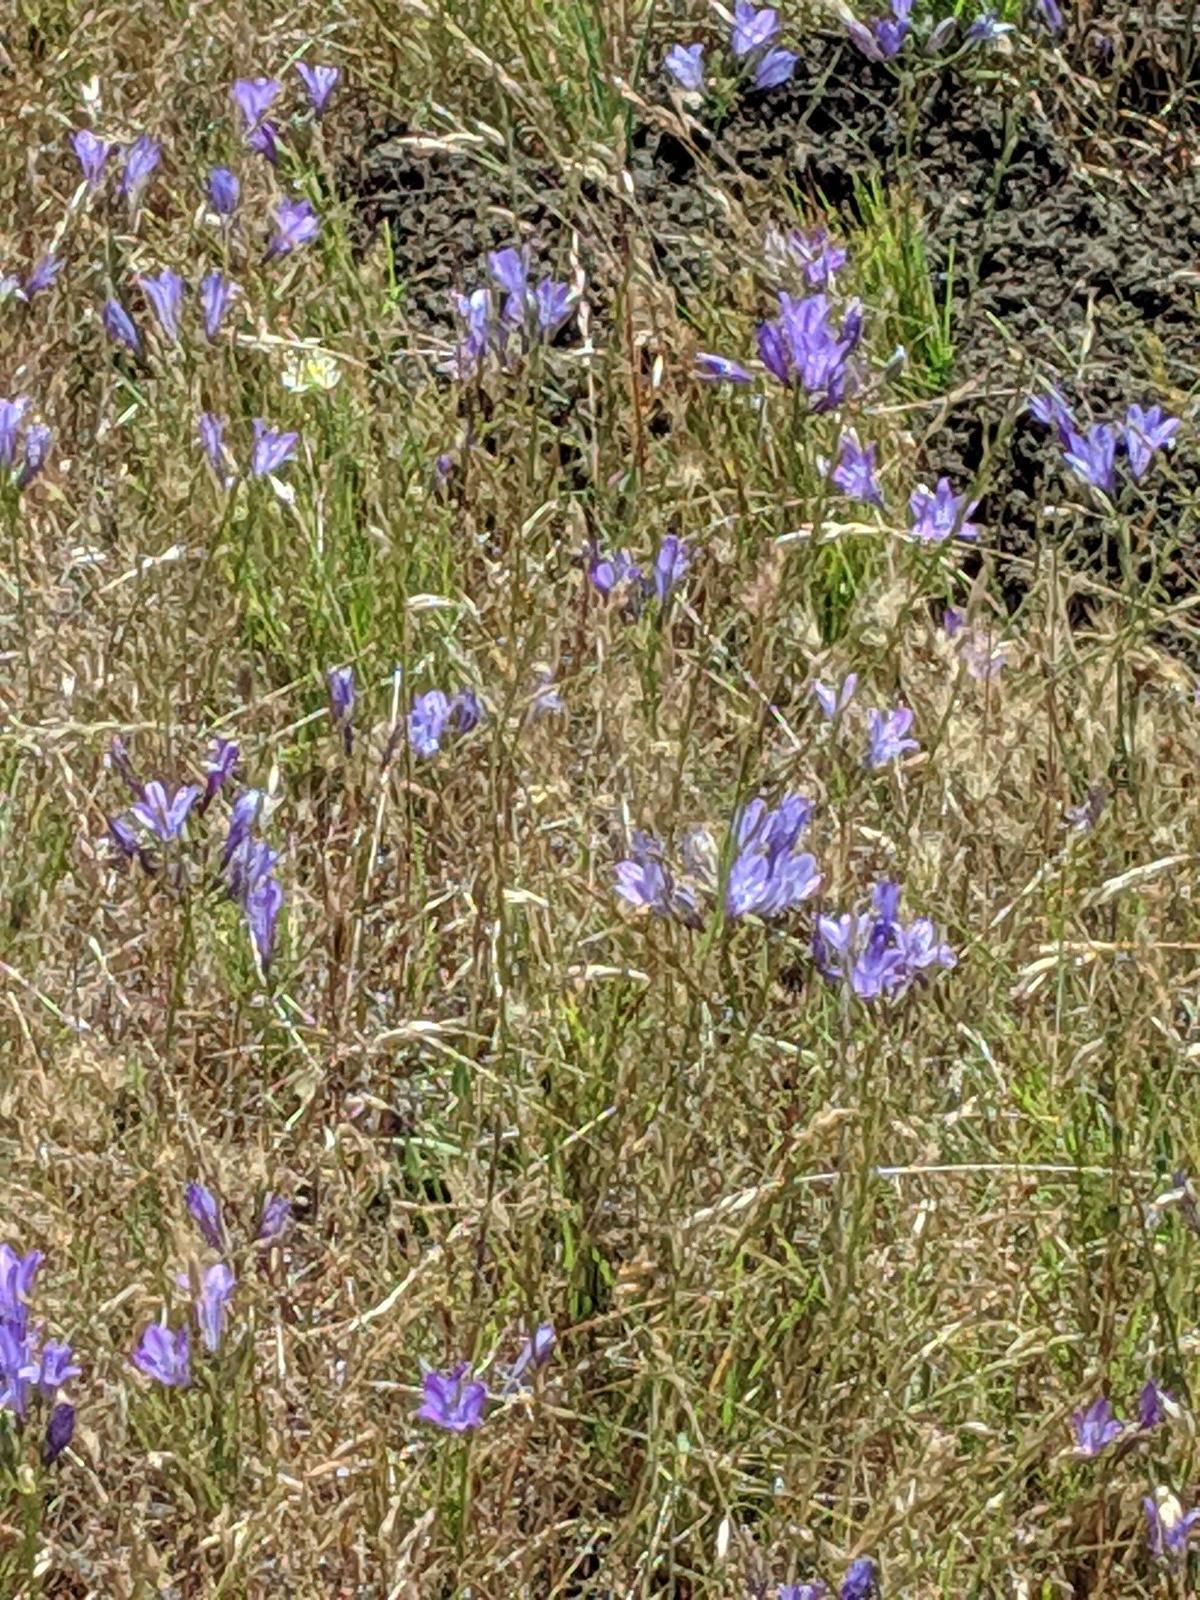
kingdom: Plantae
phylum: Tracheophyta
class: Liliopsida
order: Asparagales
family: Asparagaceae
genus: Triteleia
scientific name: Triteleia laxa
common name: Triplet-lily
